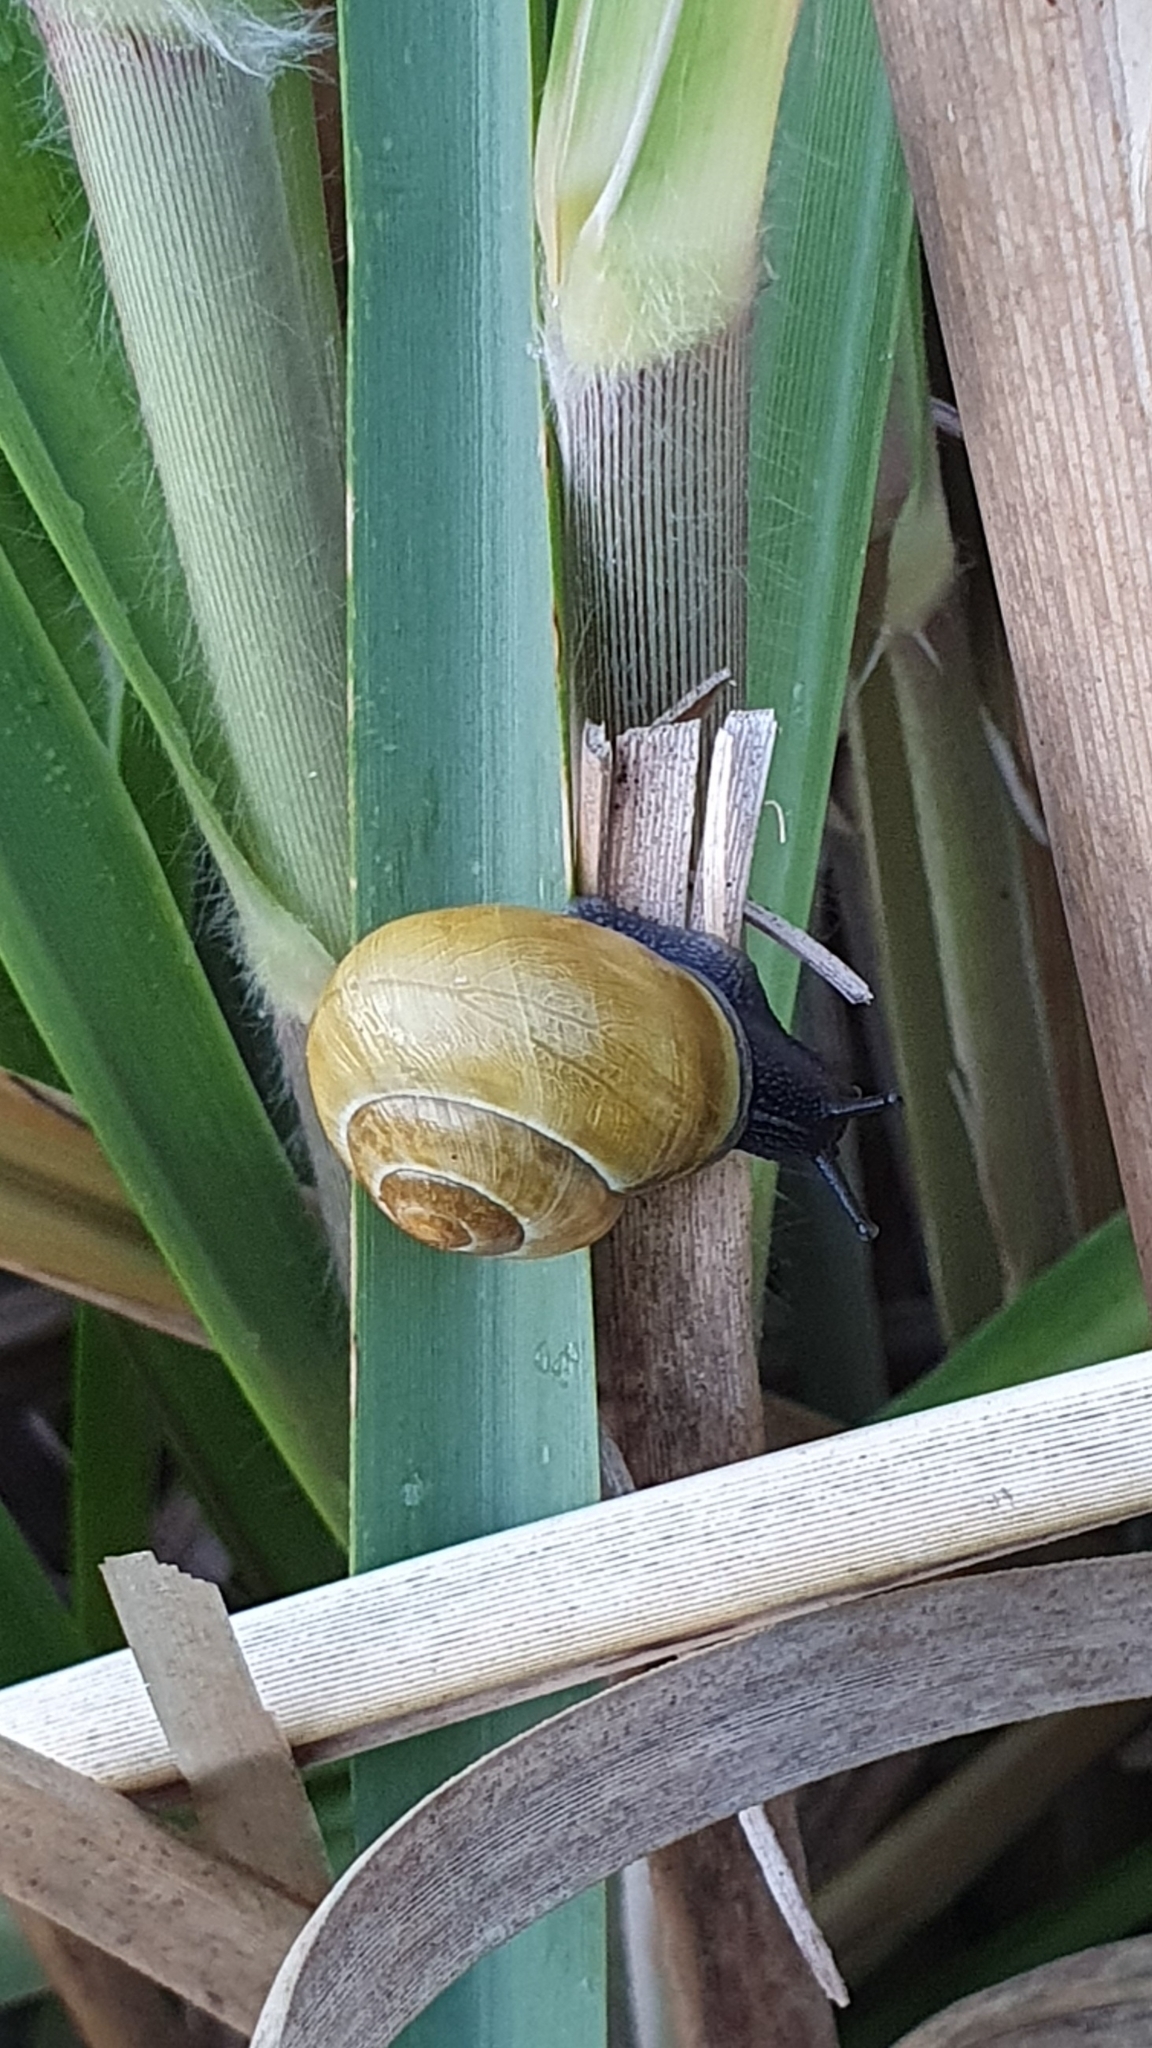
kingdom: Animalia
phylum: Mollusca
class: Gastropoda
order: Stylommatophora
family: Helicidae
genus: Cepaea
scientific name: Cepaea nemoralis
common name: Grovesnail
